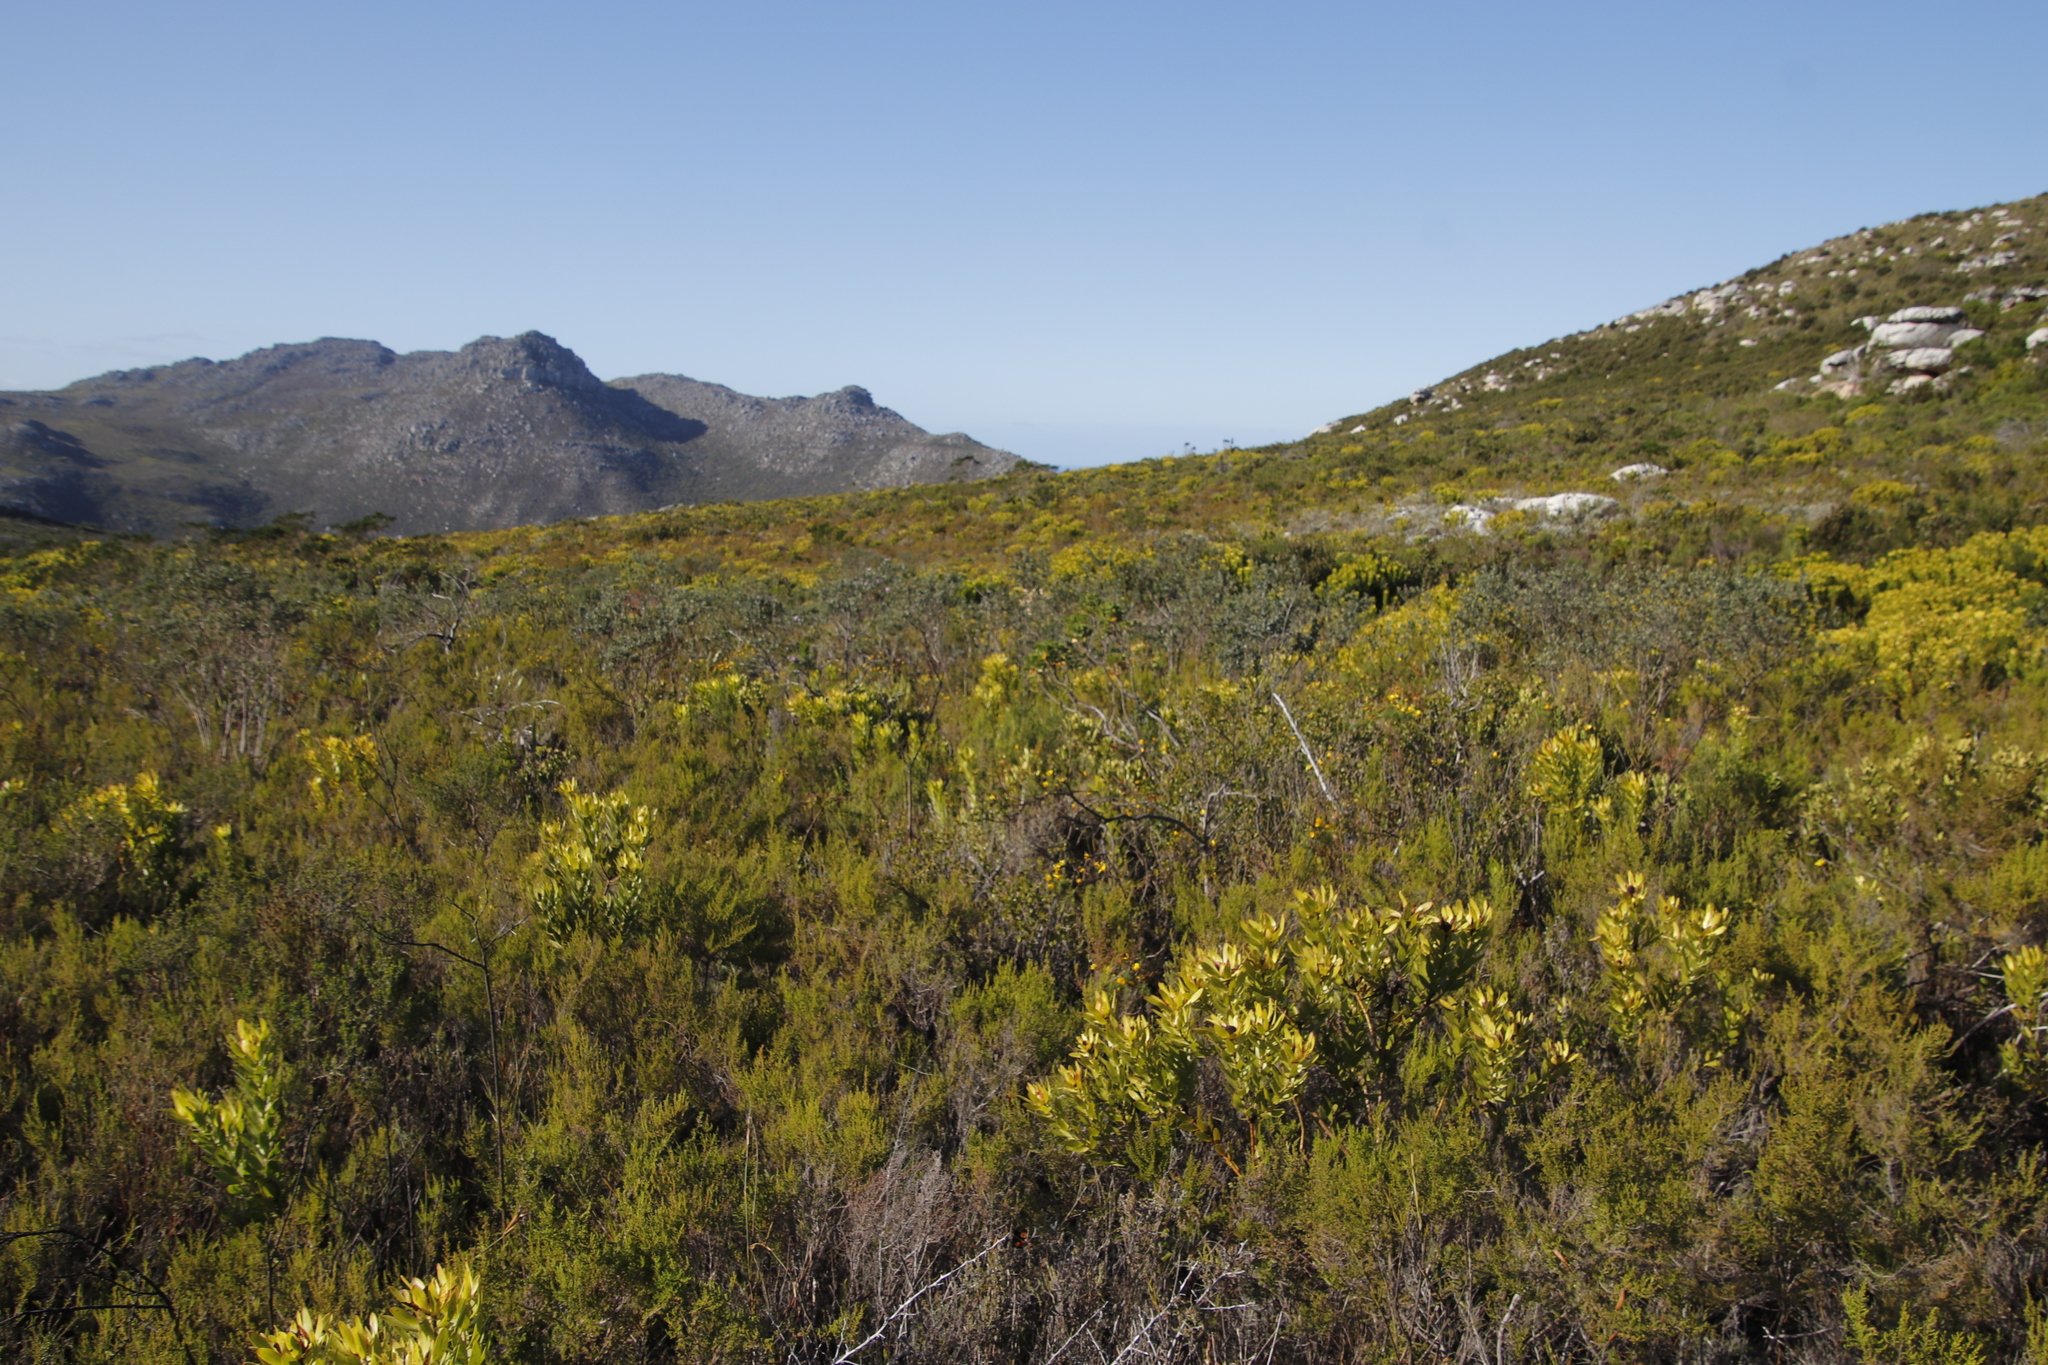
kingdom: Plantae
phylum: Tracheophyta
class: Magnoliopsida
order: Fabales
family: Fabaceae
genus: Podalyria
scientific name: Podalyria calyptrata
